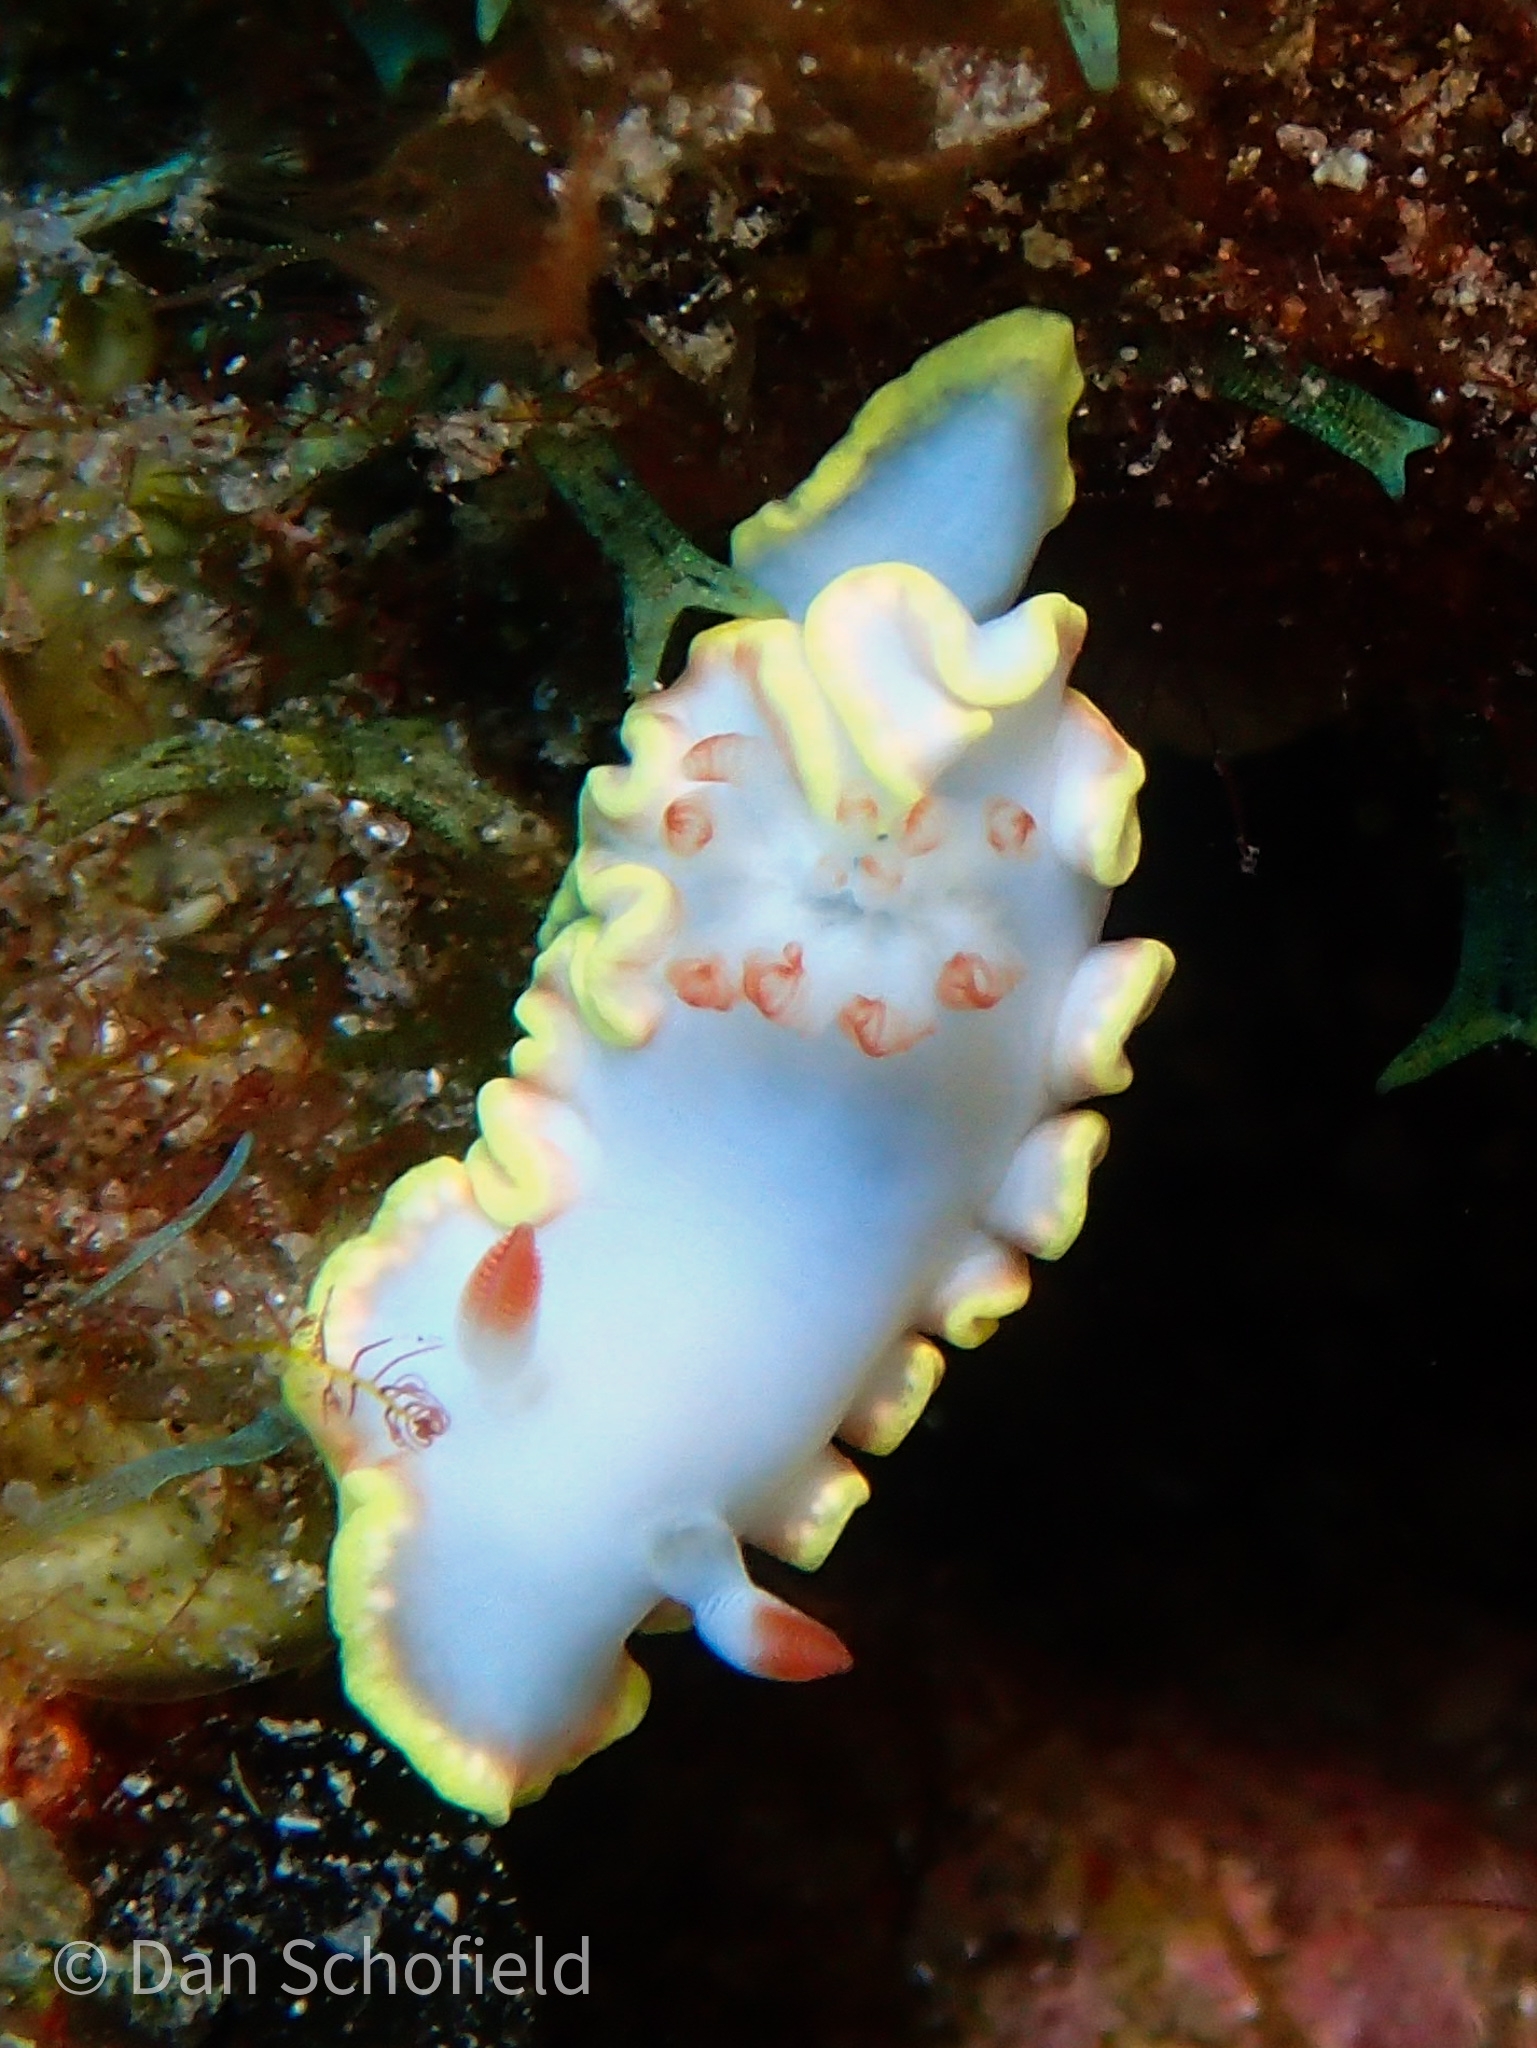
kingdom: Animalia
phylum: Mollusca
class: Gastropoda
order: Nudibranchia
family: Chromodorididae
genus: Chromolaichma
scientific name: Chromolaichma sedna
